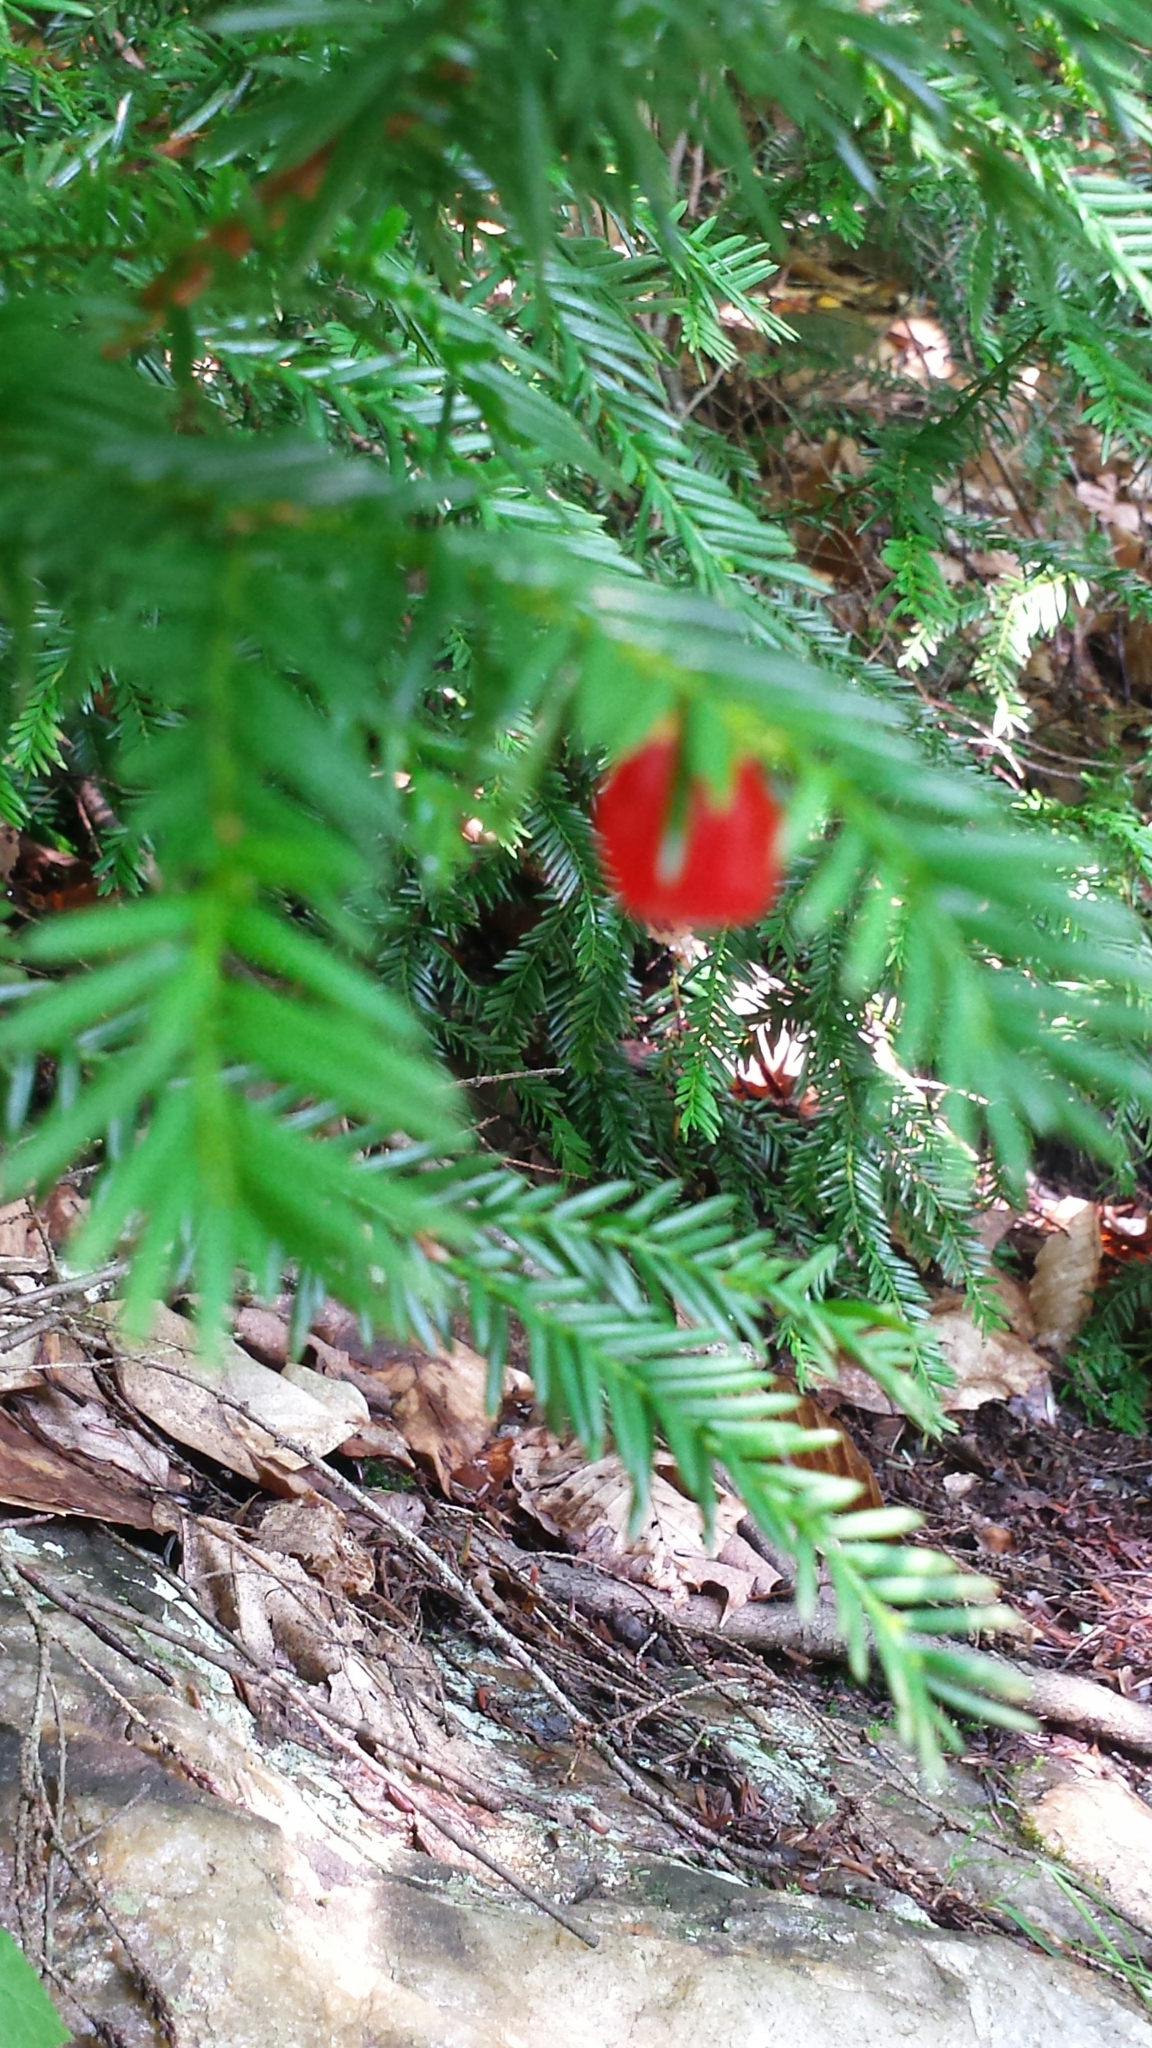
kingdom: Plantae
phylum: Tracheophyta
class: Pinopsida
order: Pinales
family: Taxaceae
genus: Taxus
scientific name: Taxus canadensis
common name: American yew
